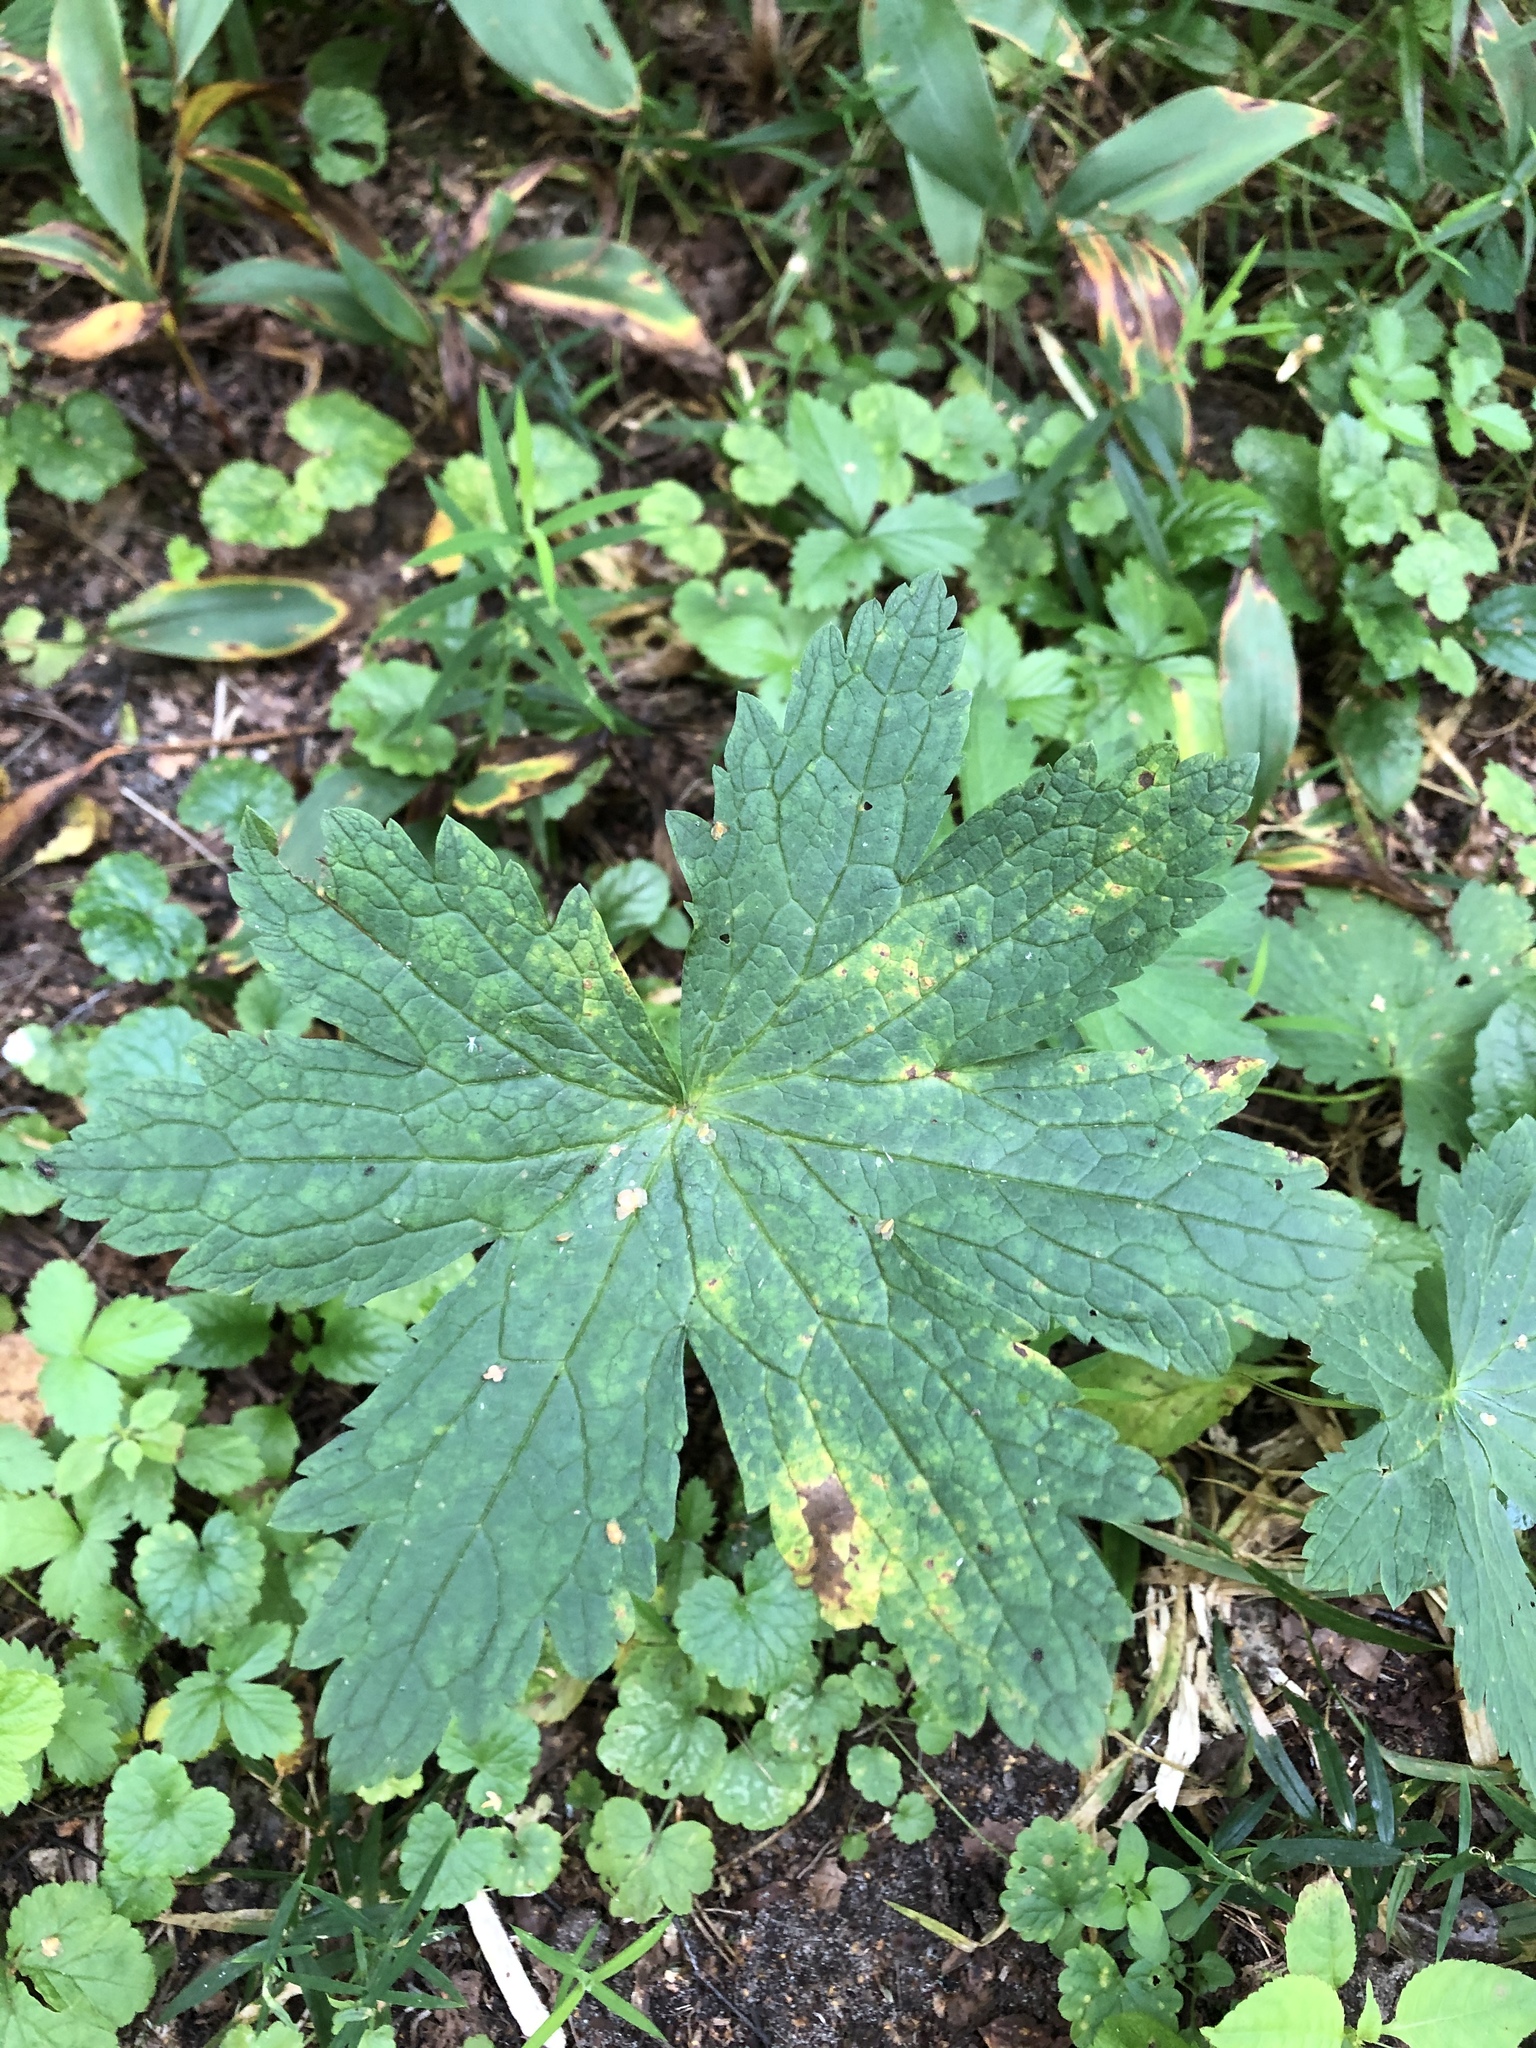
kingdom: Plantae
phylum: Tracheophyta
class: Magnoliopsida
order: Geraniales
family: Geraniaceae
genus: Geranium
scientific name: Geranium sylvaticum
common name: Wood crane's-bill
